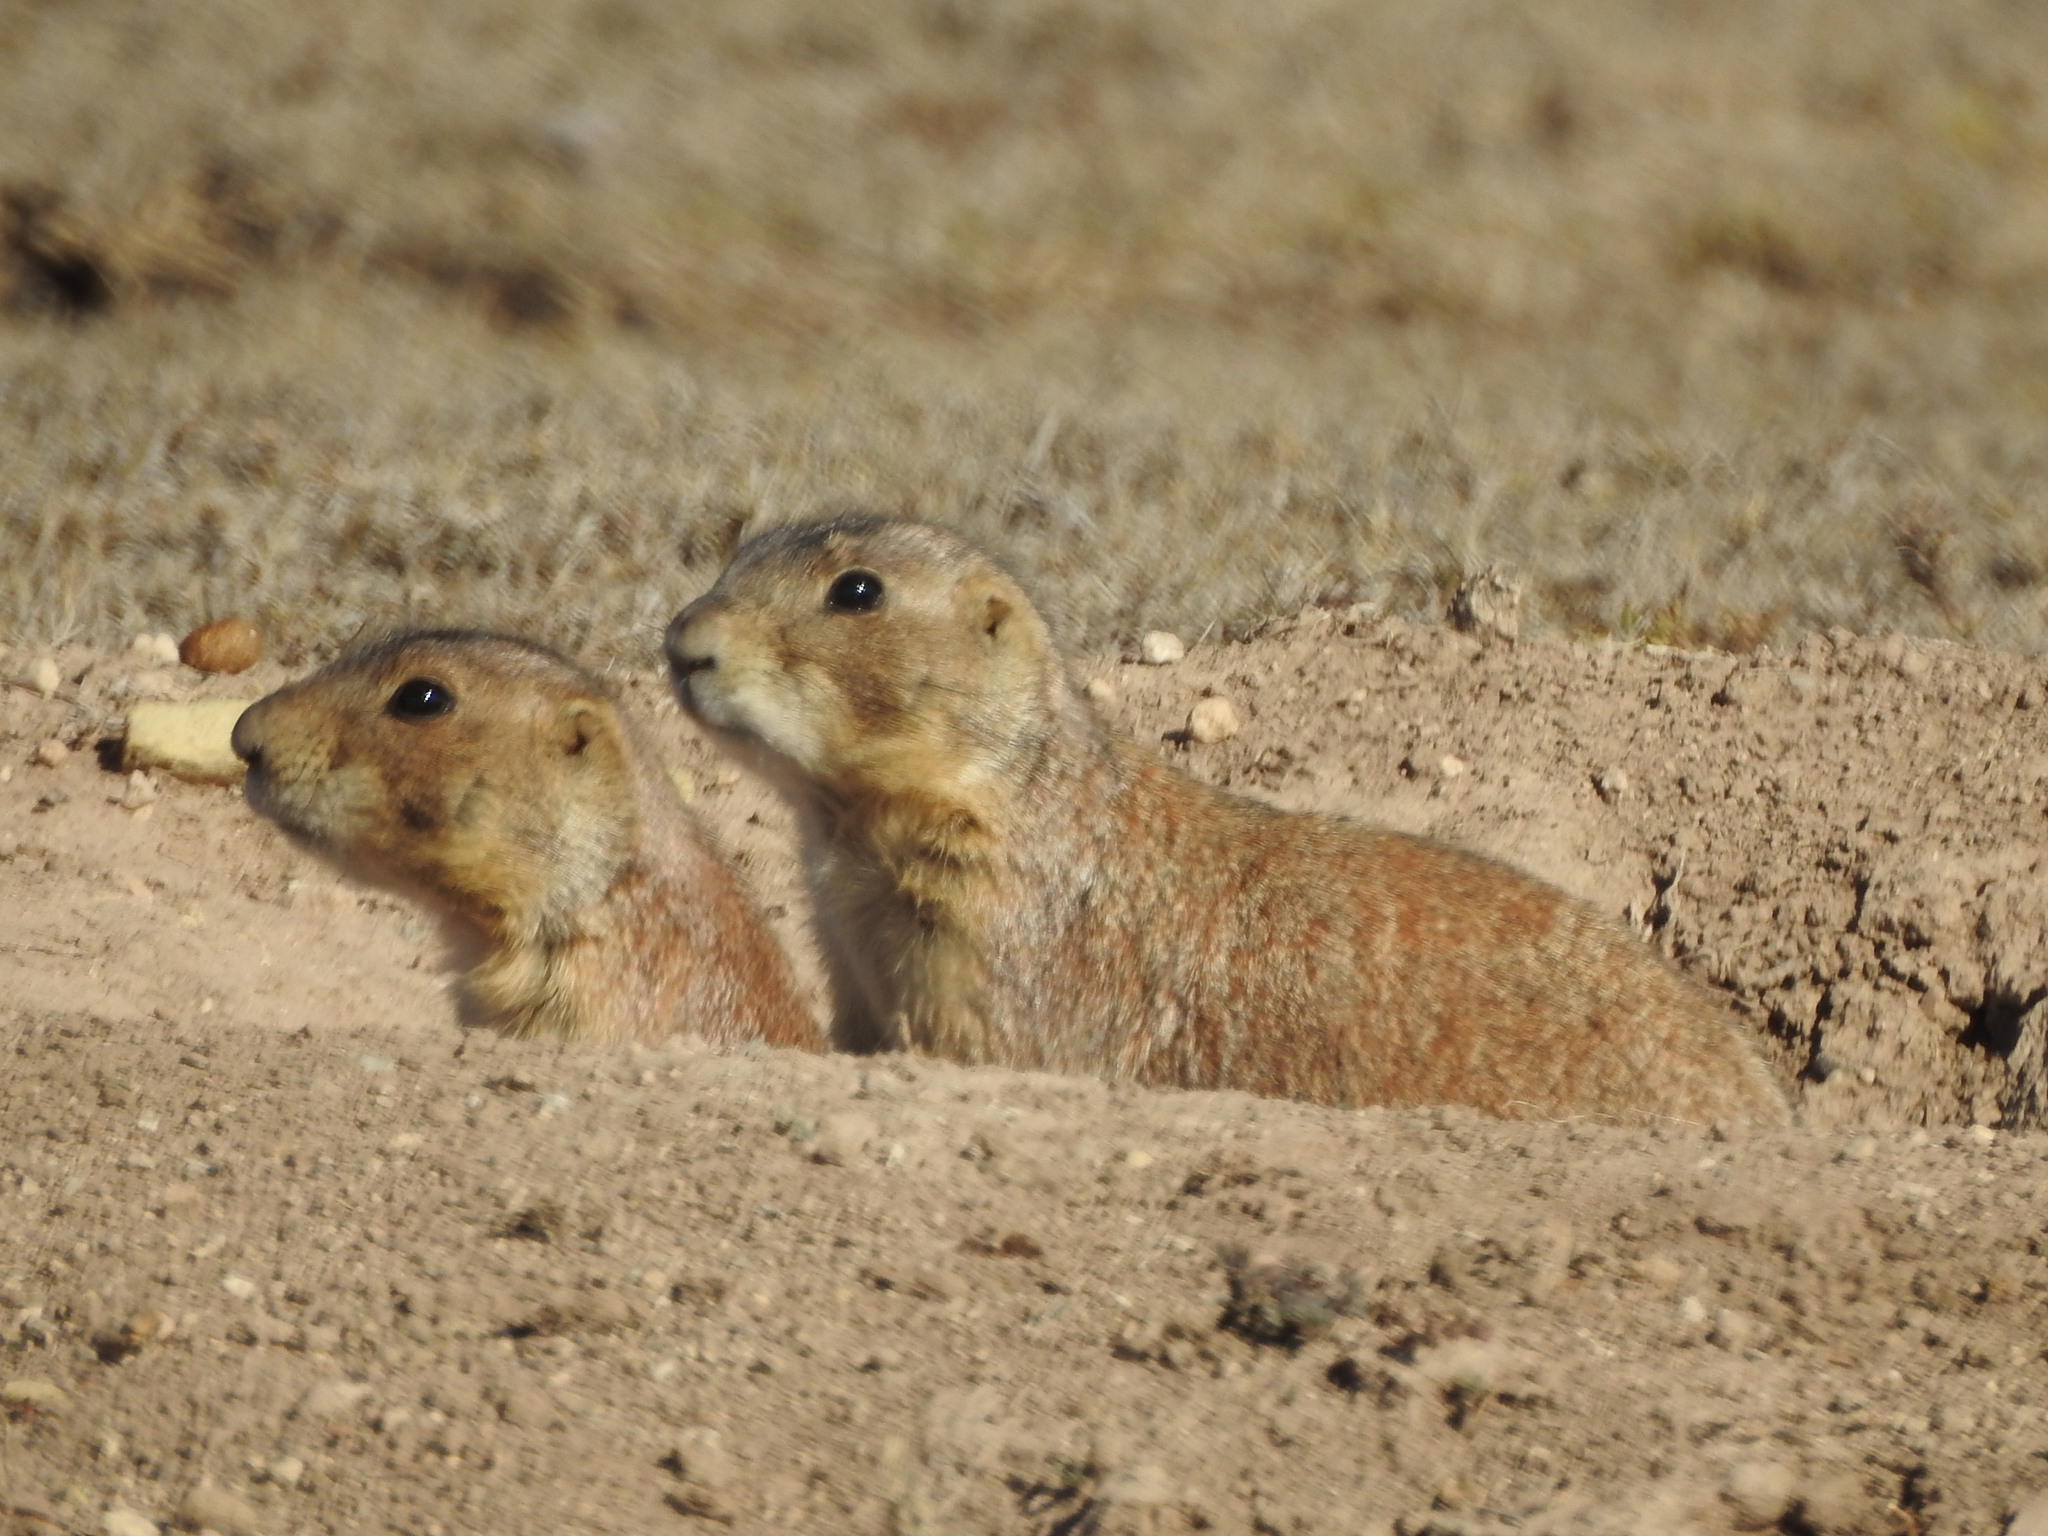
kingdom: Animalia
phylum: Chordata
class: Mammalia
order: Rodentia
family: Sciuridae
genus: Cynomys
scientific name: Cynomys mexicanus
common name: Mexican prairie dog
